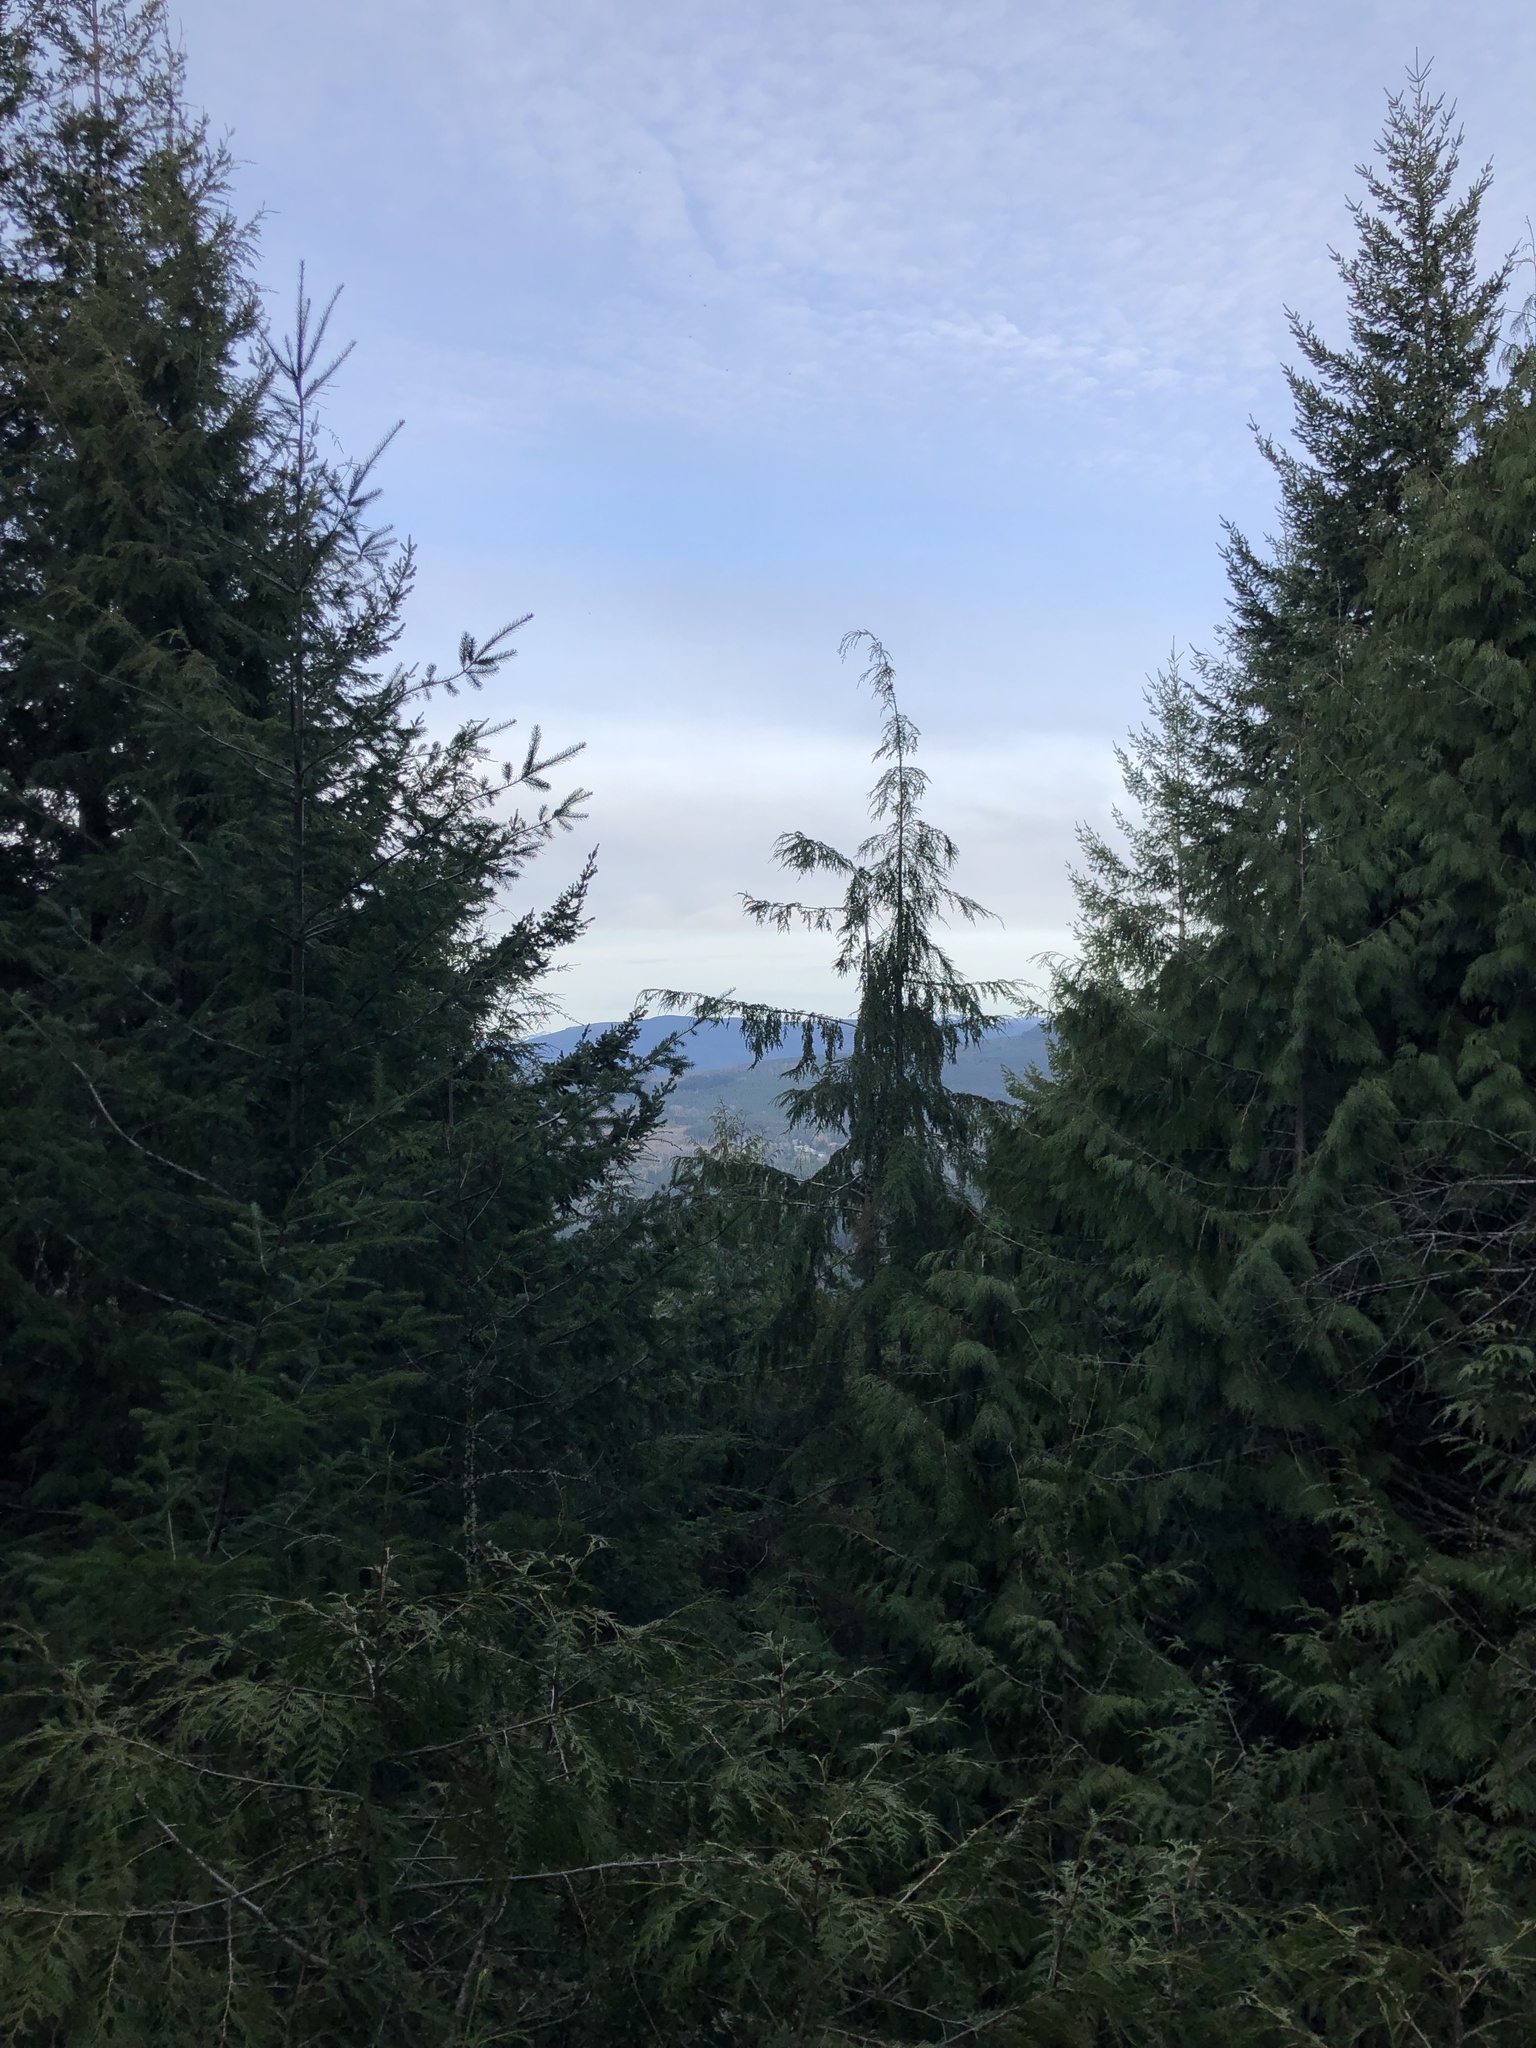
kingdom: Plantae
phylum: Tracheophyta
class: Pinopsida
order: Pinales
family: Cupressaceae
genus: Thuja
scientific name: Thuja plicata
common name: Western red-cedar
